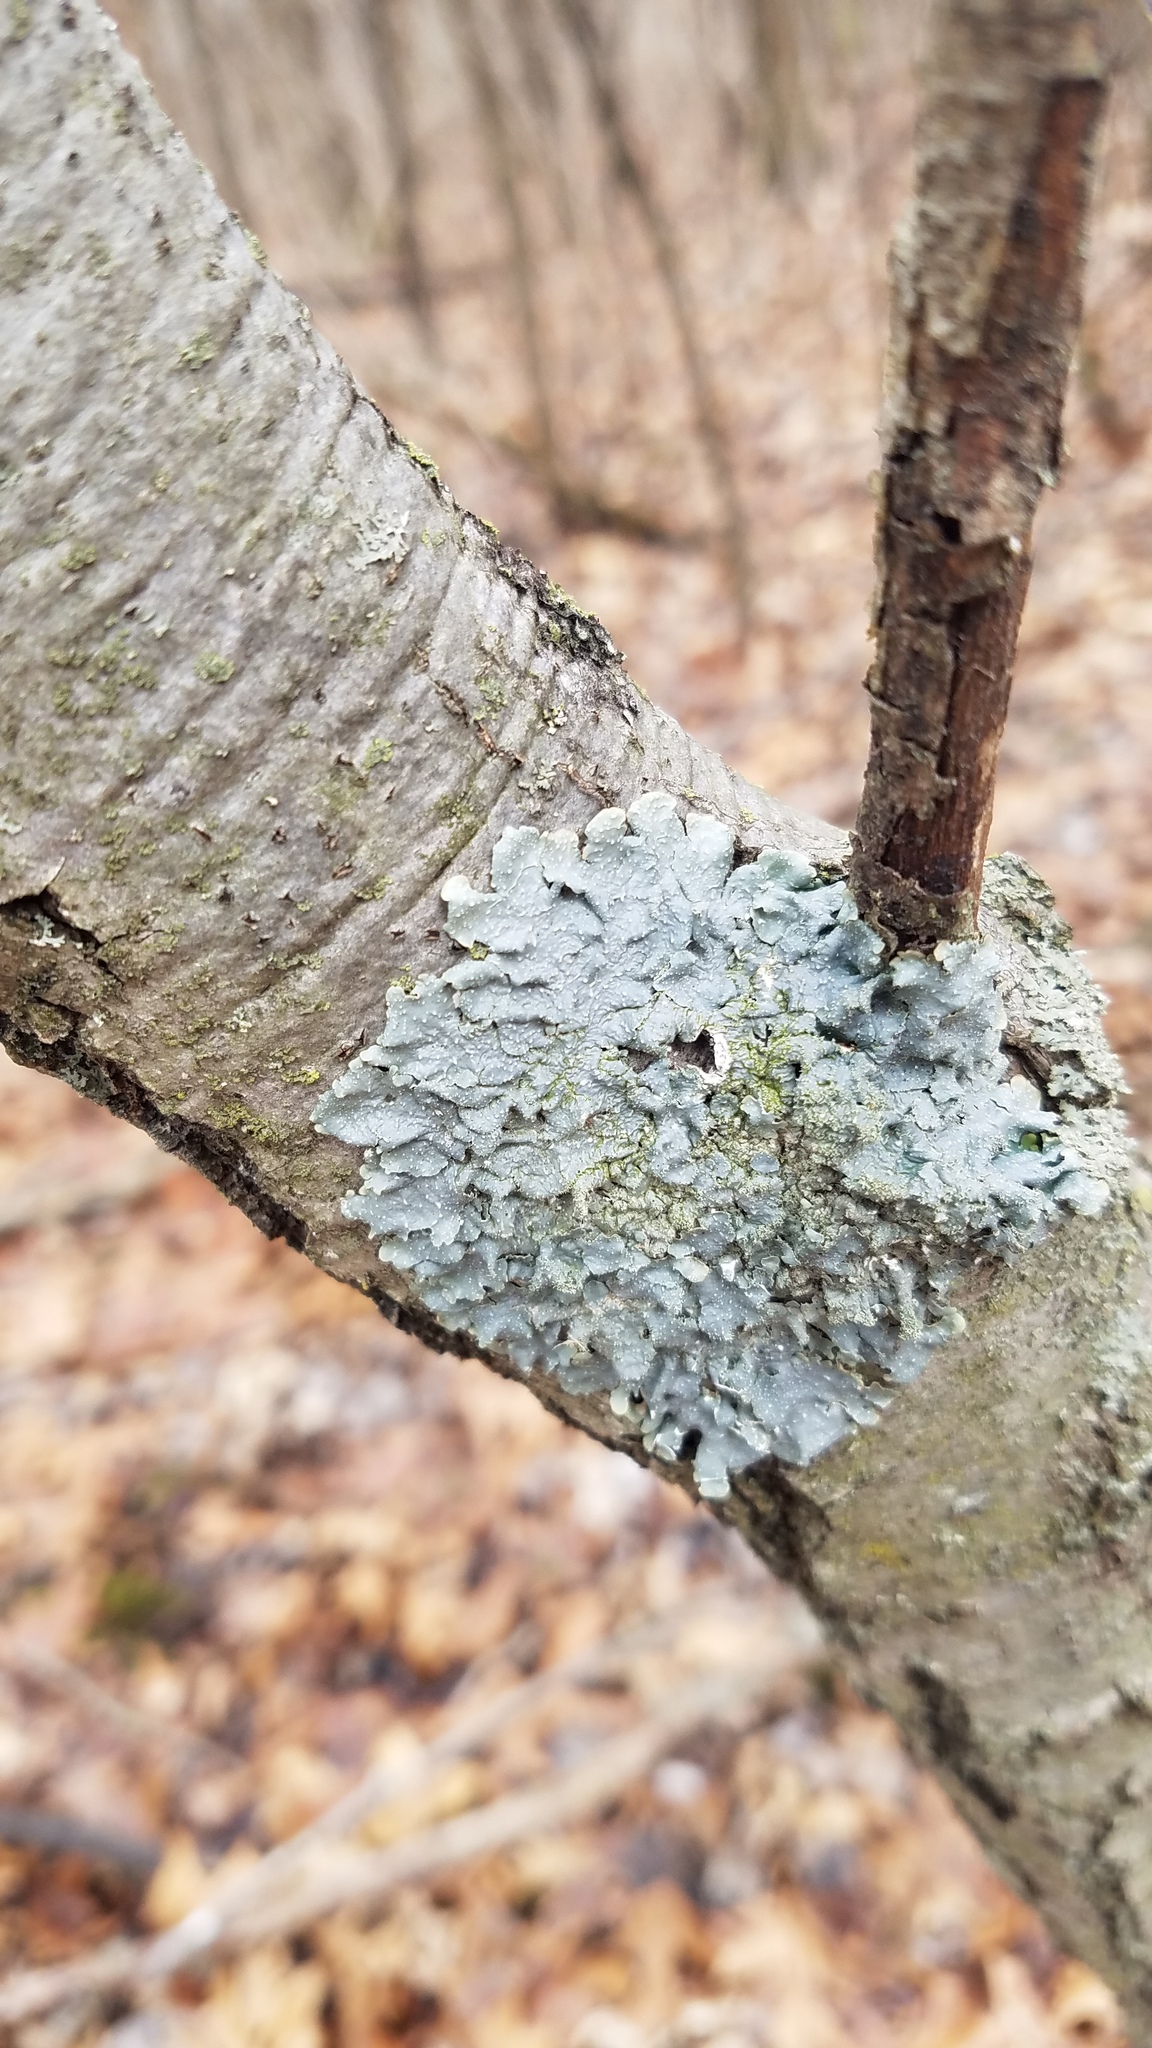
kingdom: Fungi
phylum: Ascomycota
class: Lecanoromycetes
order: Lecanorales
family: Parmeliaceae
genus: Punctelia
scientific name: Punctelia rudecta
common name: Rough speckled shield lichen
